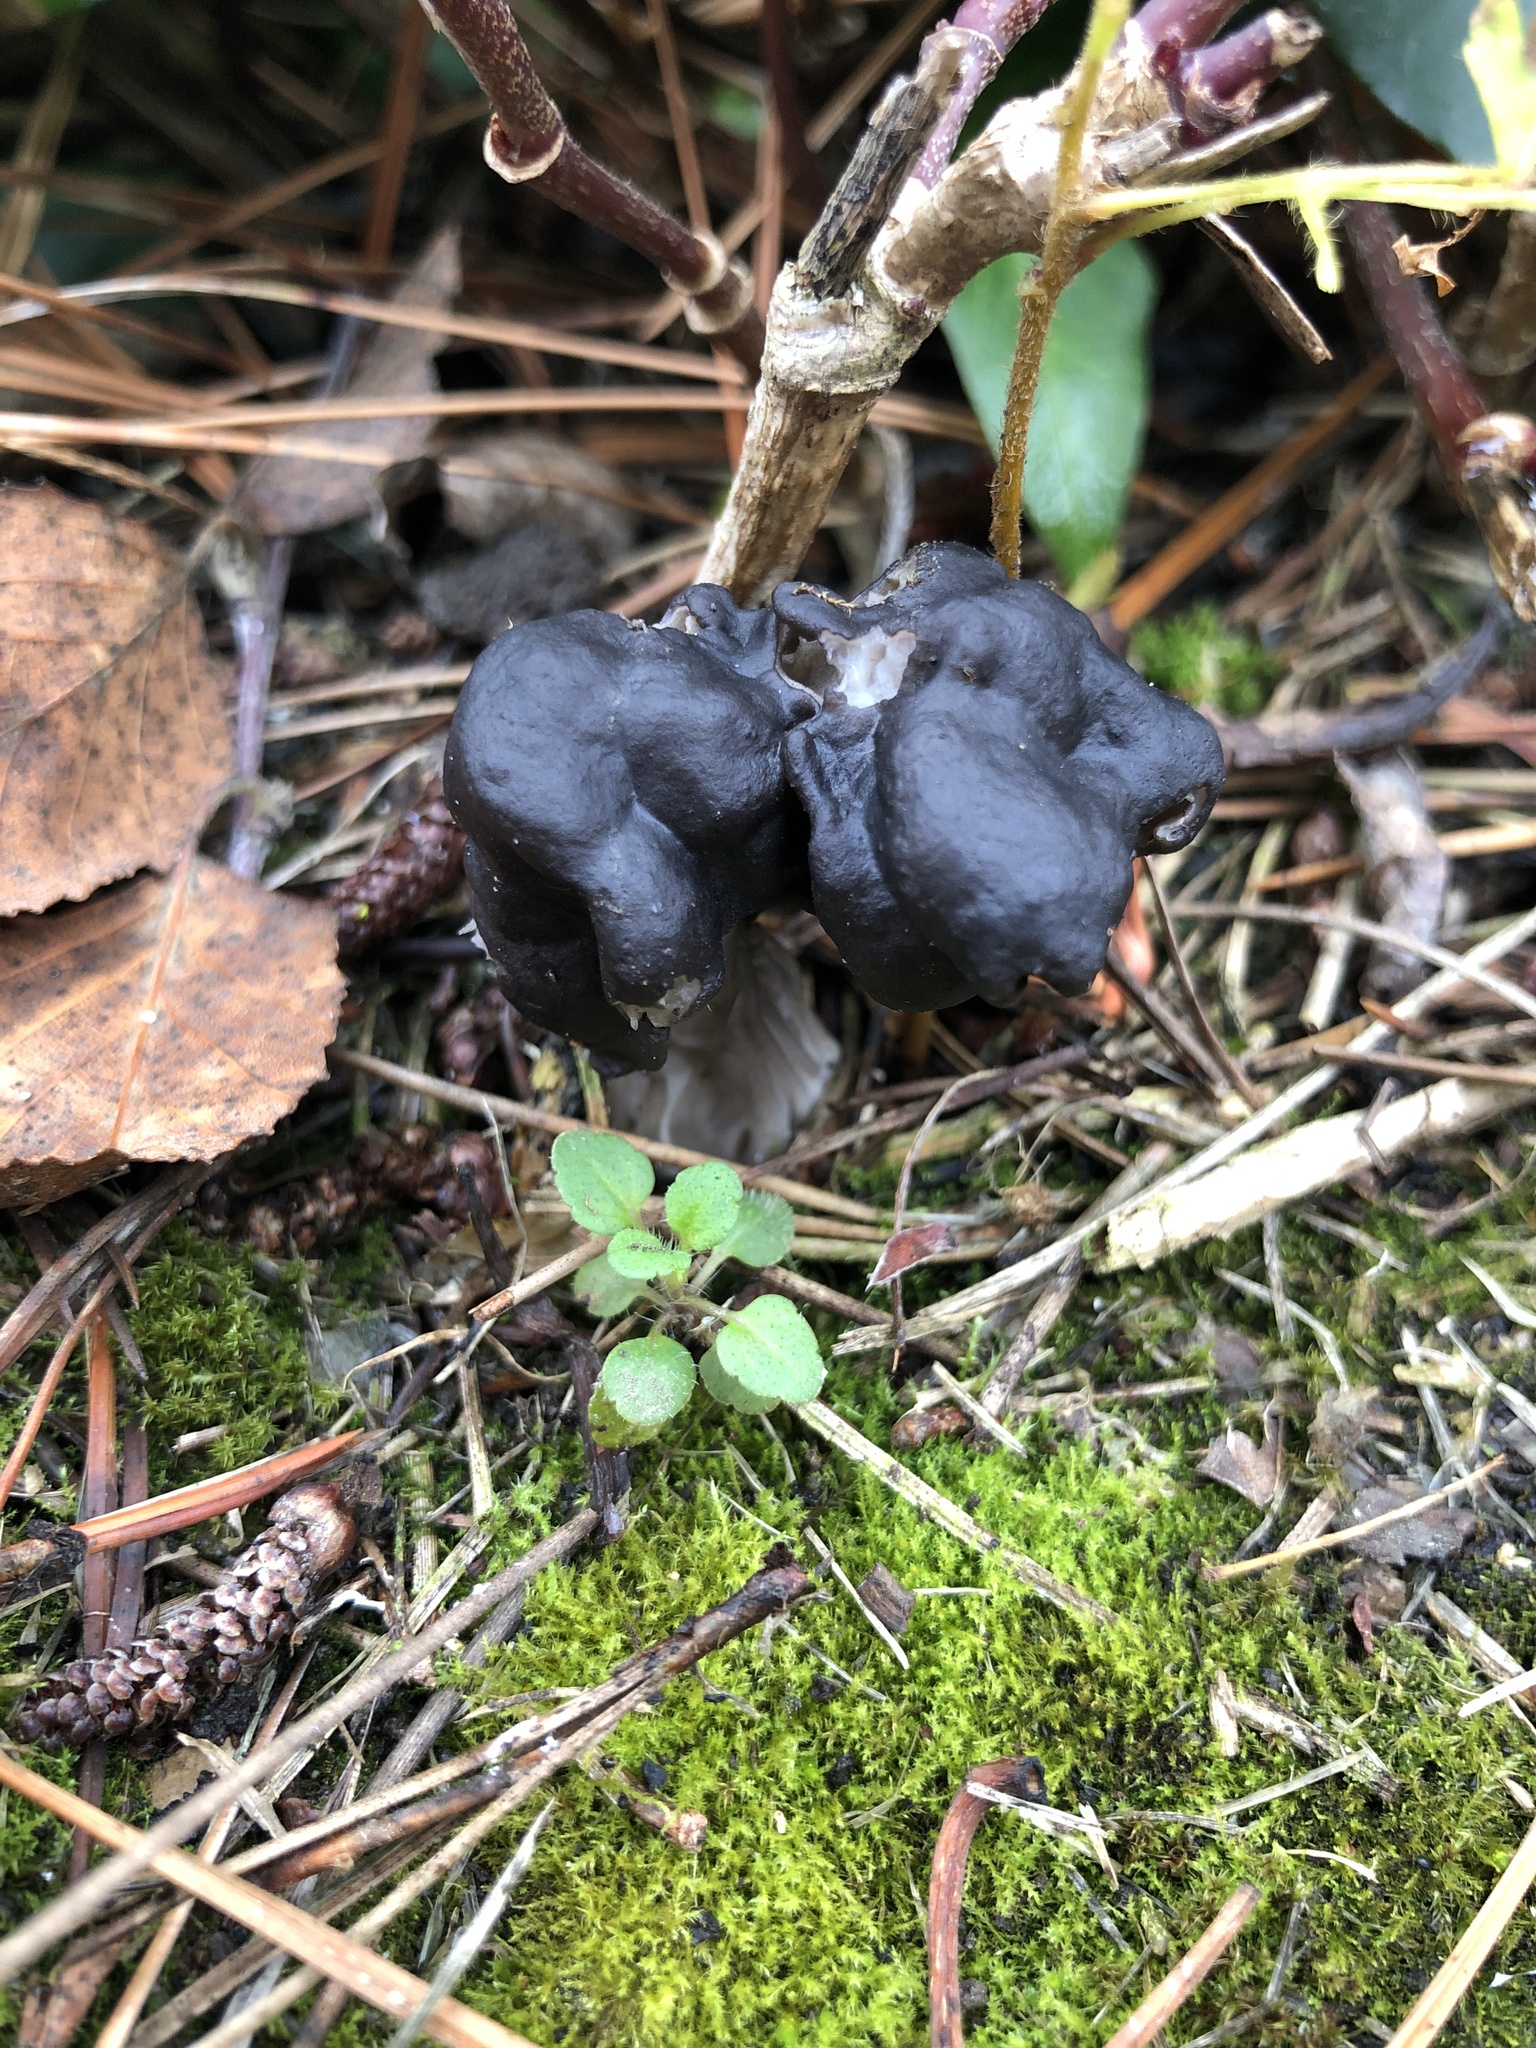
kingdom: Fungi
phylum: Ascomycota
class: Pezizomycetes
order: Pezizales
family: Helvellaceae
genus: Helvella
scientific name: Helvella vespertina
